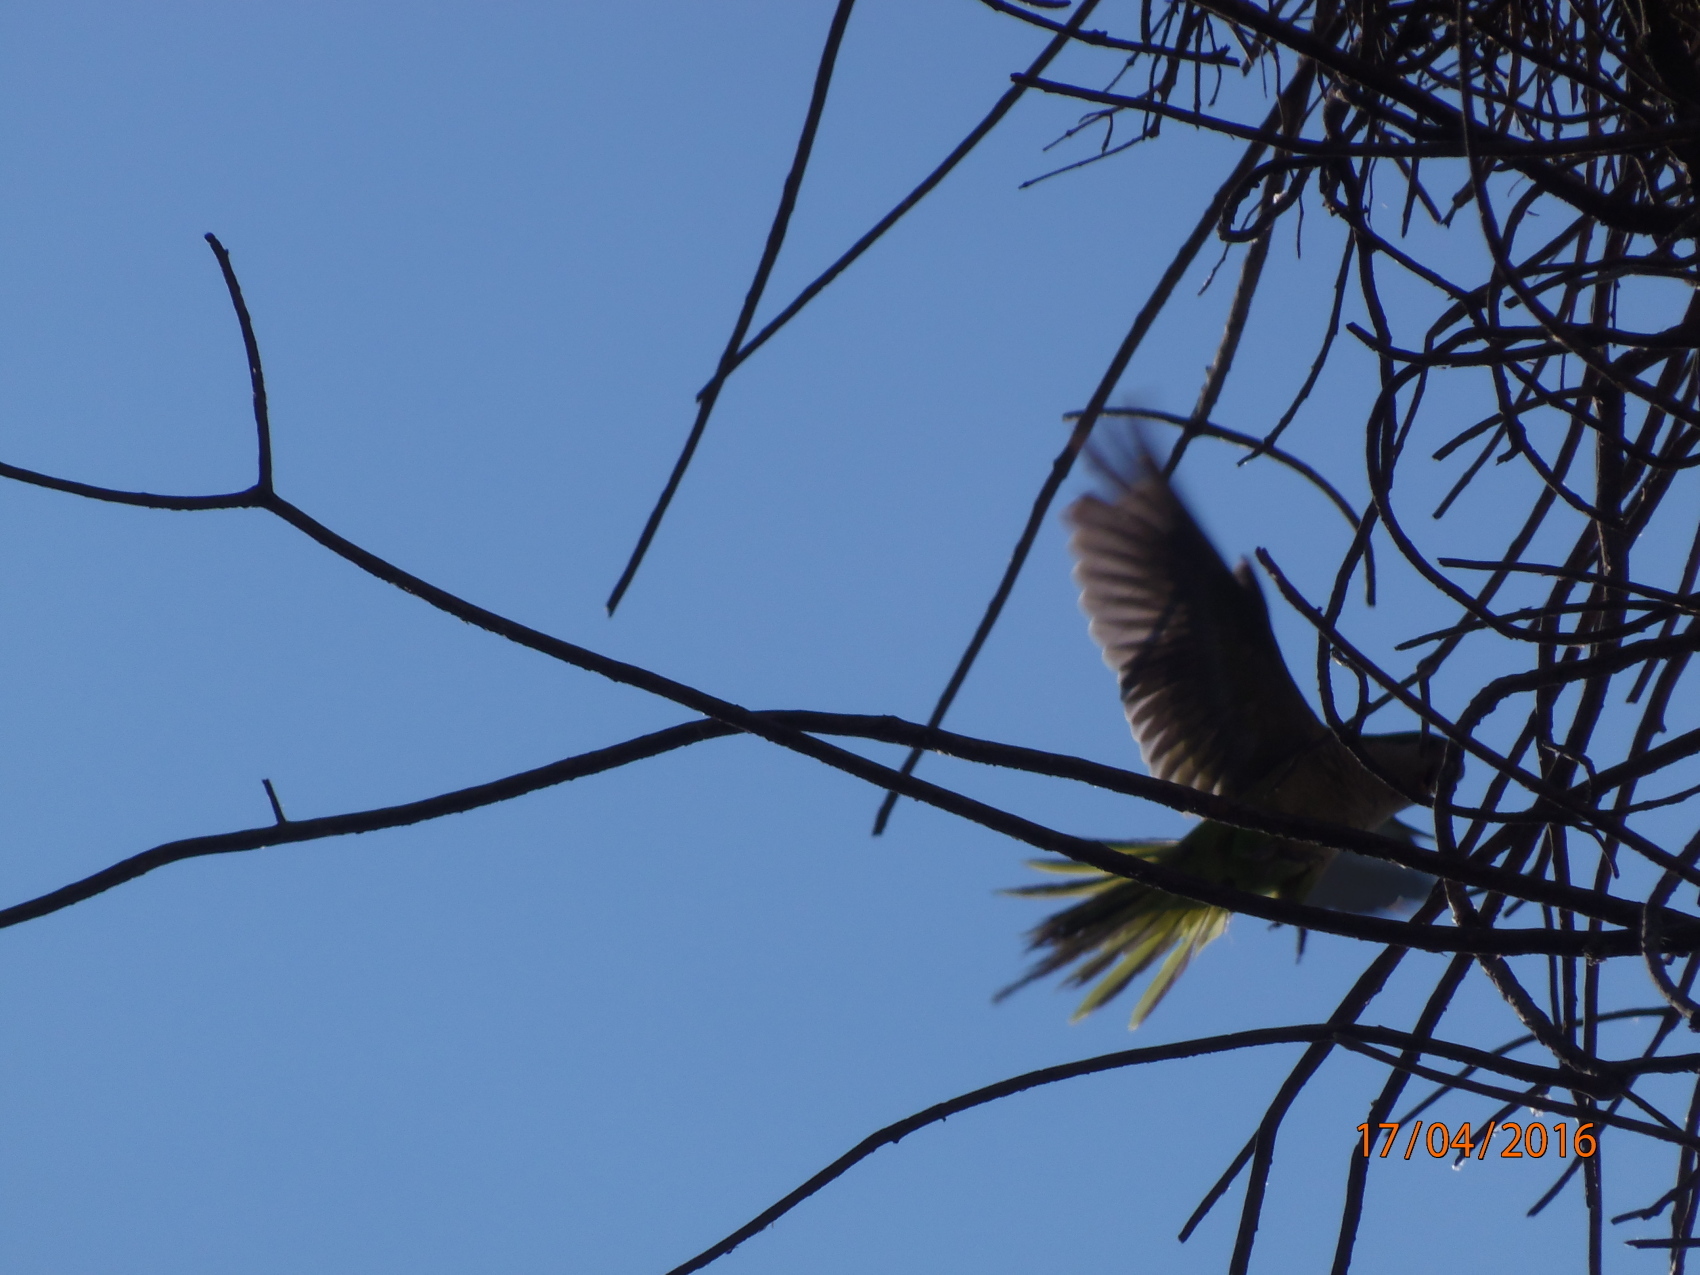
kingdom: Animalia
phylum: Chordata
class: Aves
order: Psittaciformes
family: Psittacidae
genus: Myiopsitta
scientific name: Myiopsitta monachus
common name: Monk parakeet
